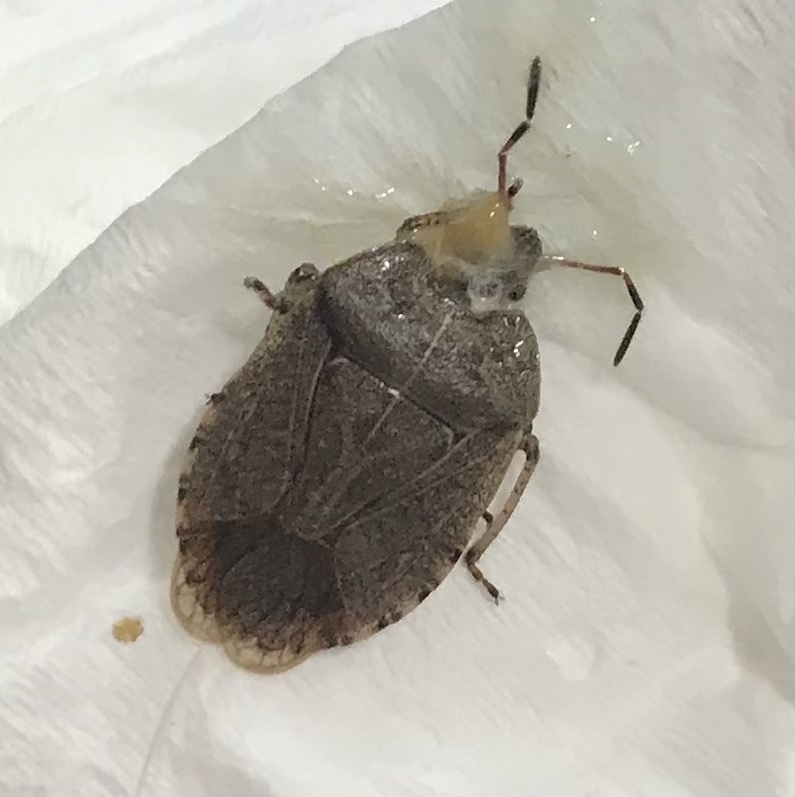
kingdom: Animalia
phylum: Arthropoda
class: Insecta
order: Hemiptera
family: Pentatomidae
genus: Menecles
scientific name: Menecles insertus
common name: Elf shoe stink bug
